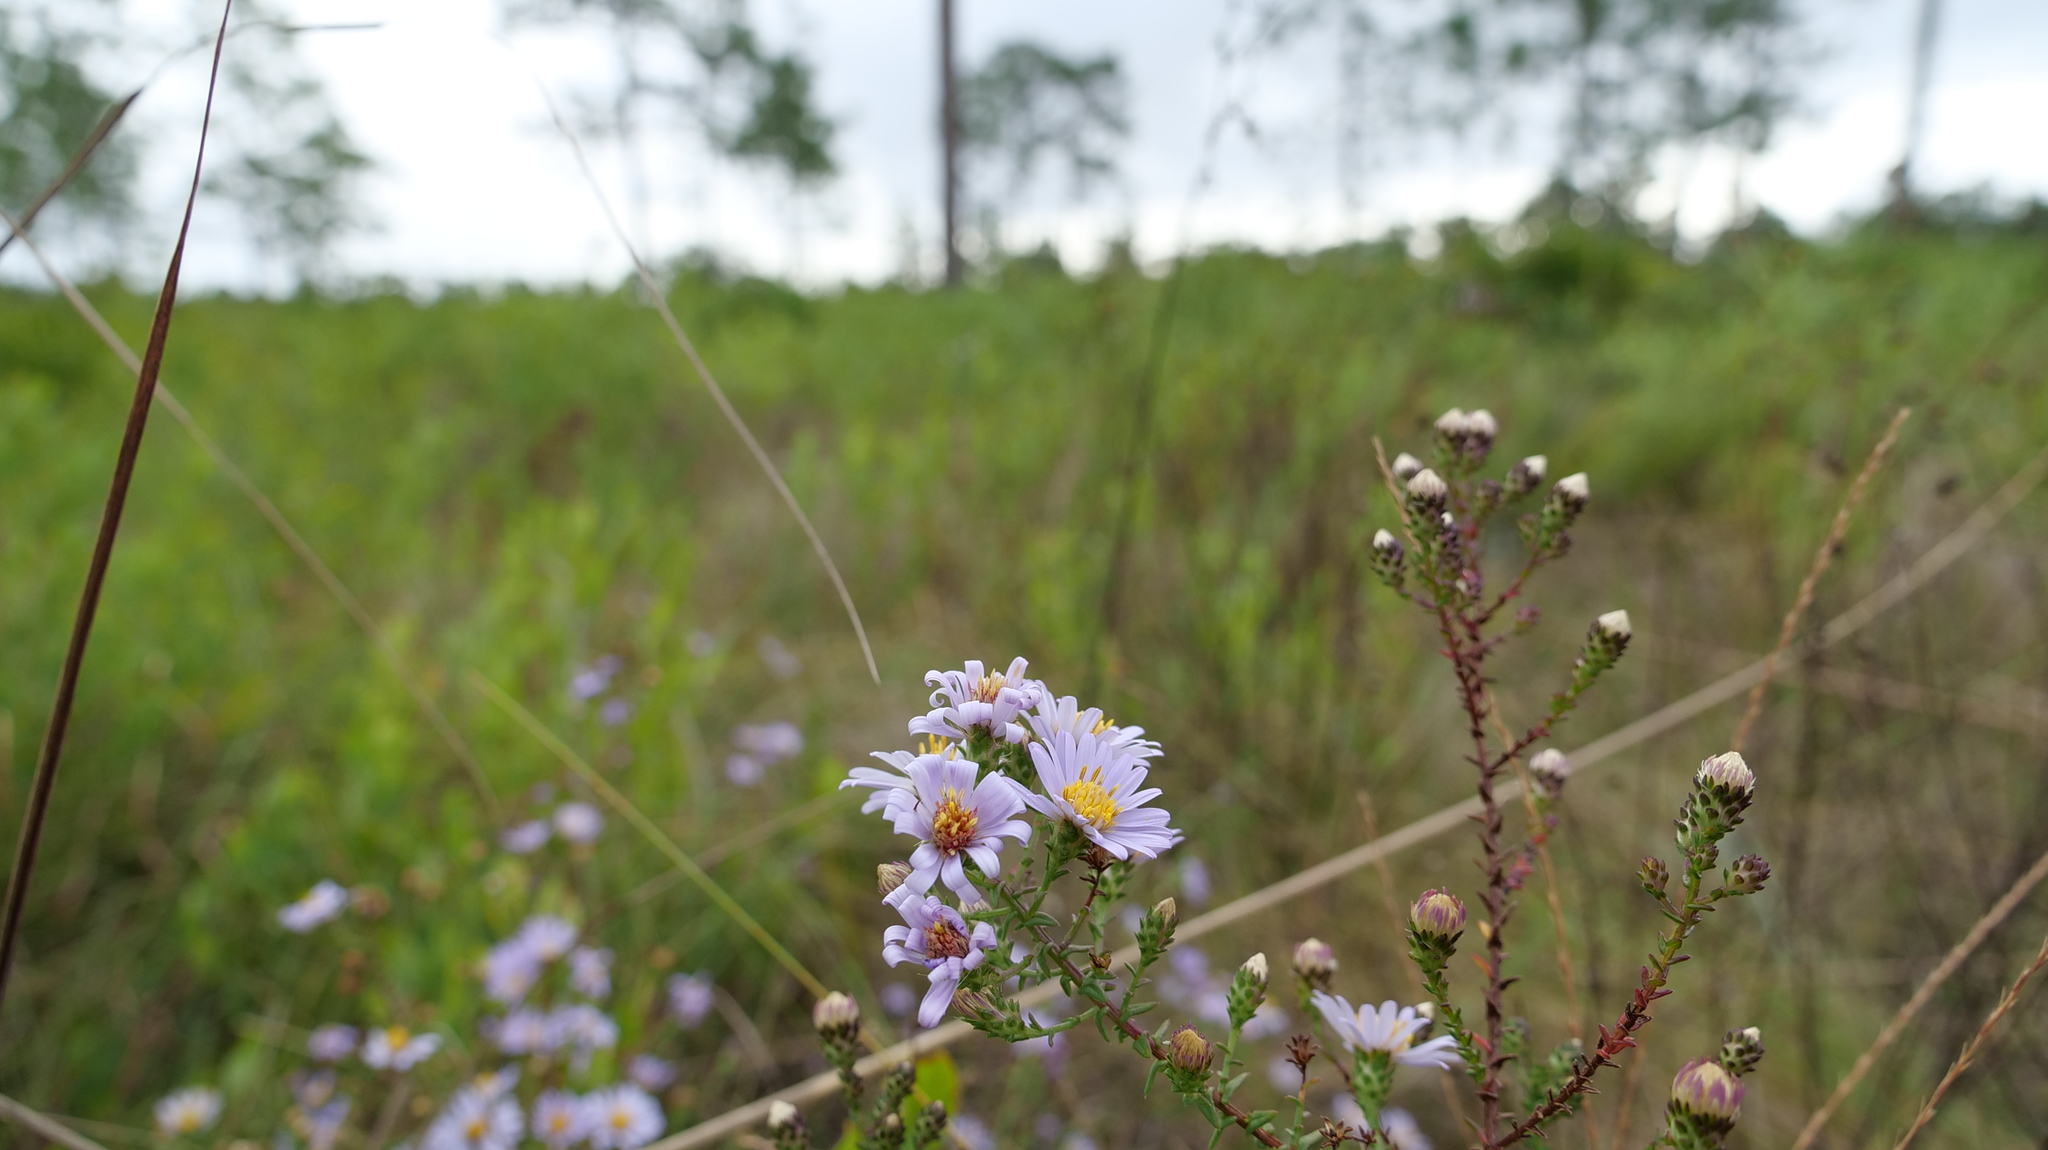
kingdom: Plantae
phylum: Tracheophyta
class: Magnoliopsida
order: Asterales
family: Asteraceae
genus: Symphyotrichum
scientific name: Symphyotrichum walteri
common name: Walter's aster
